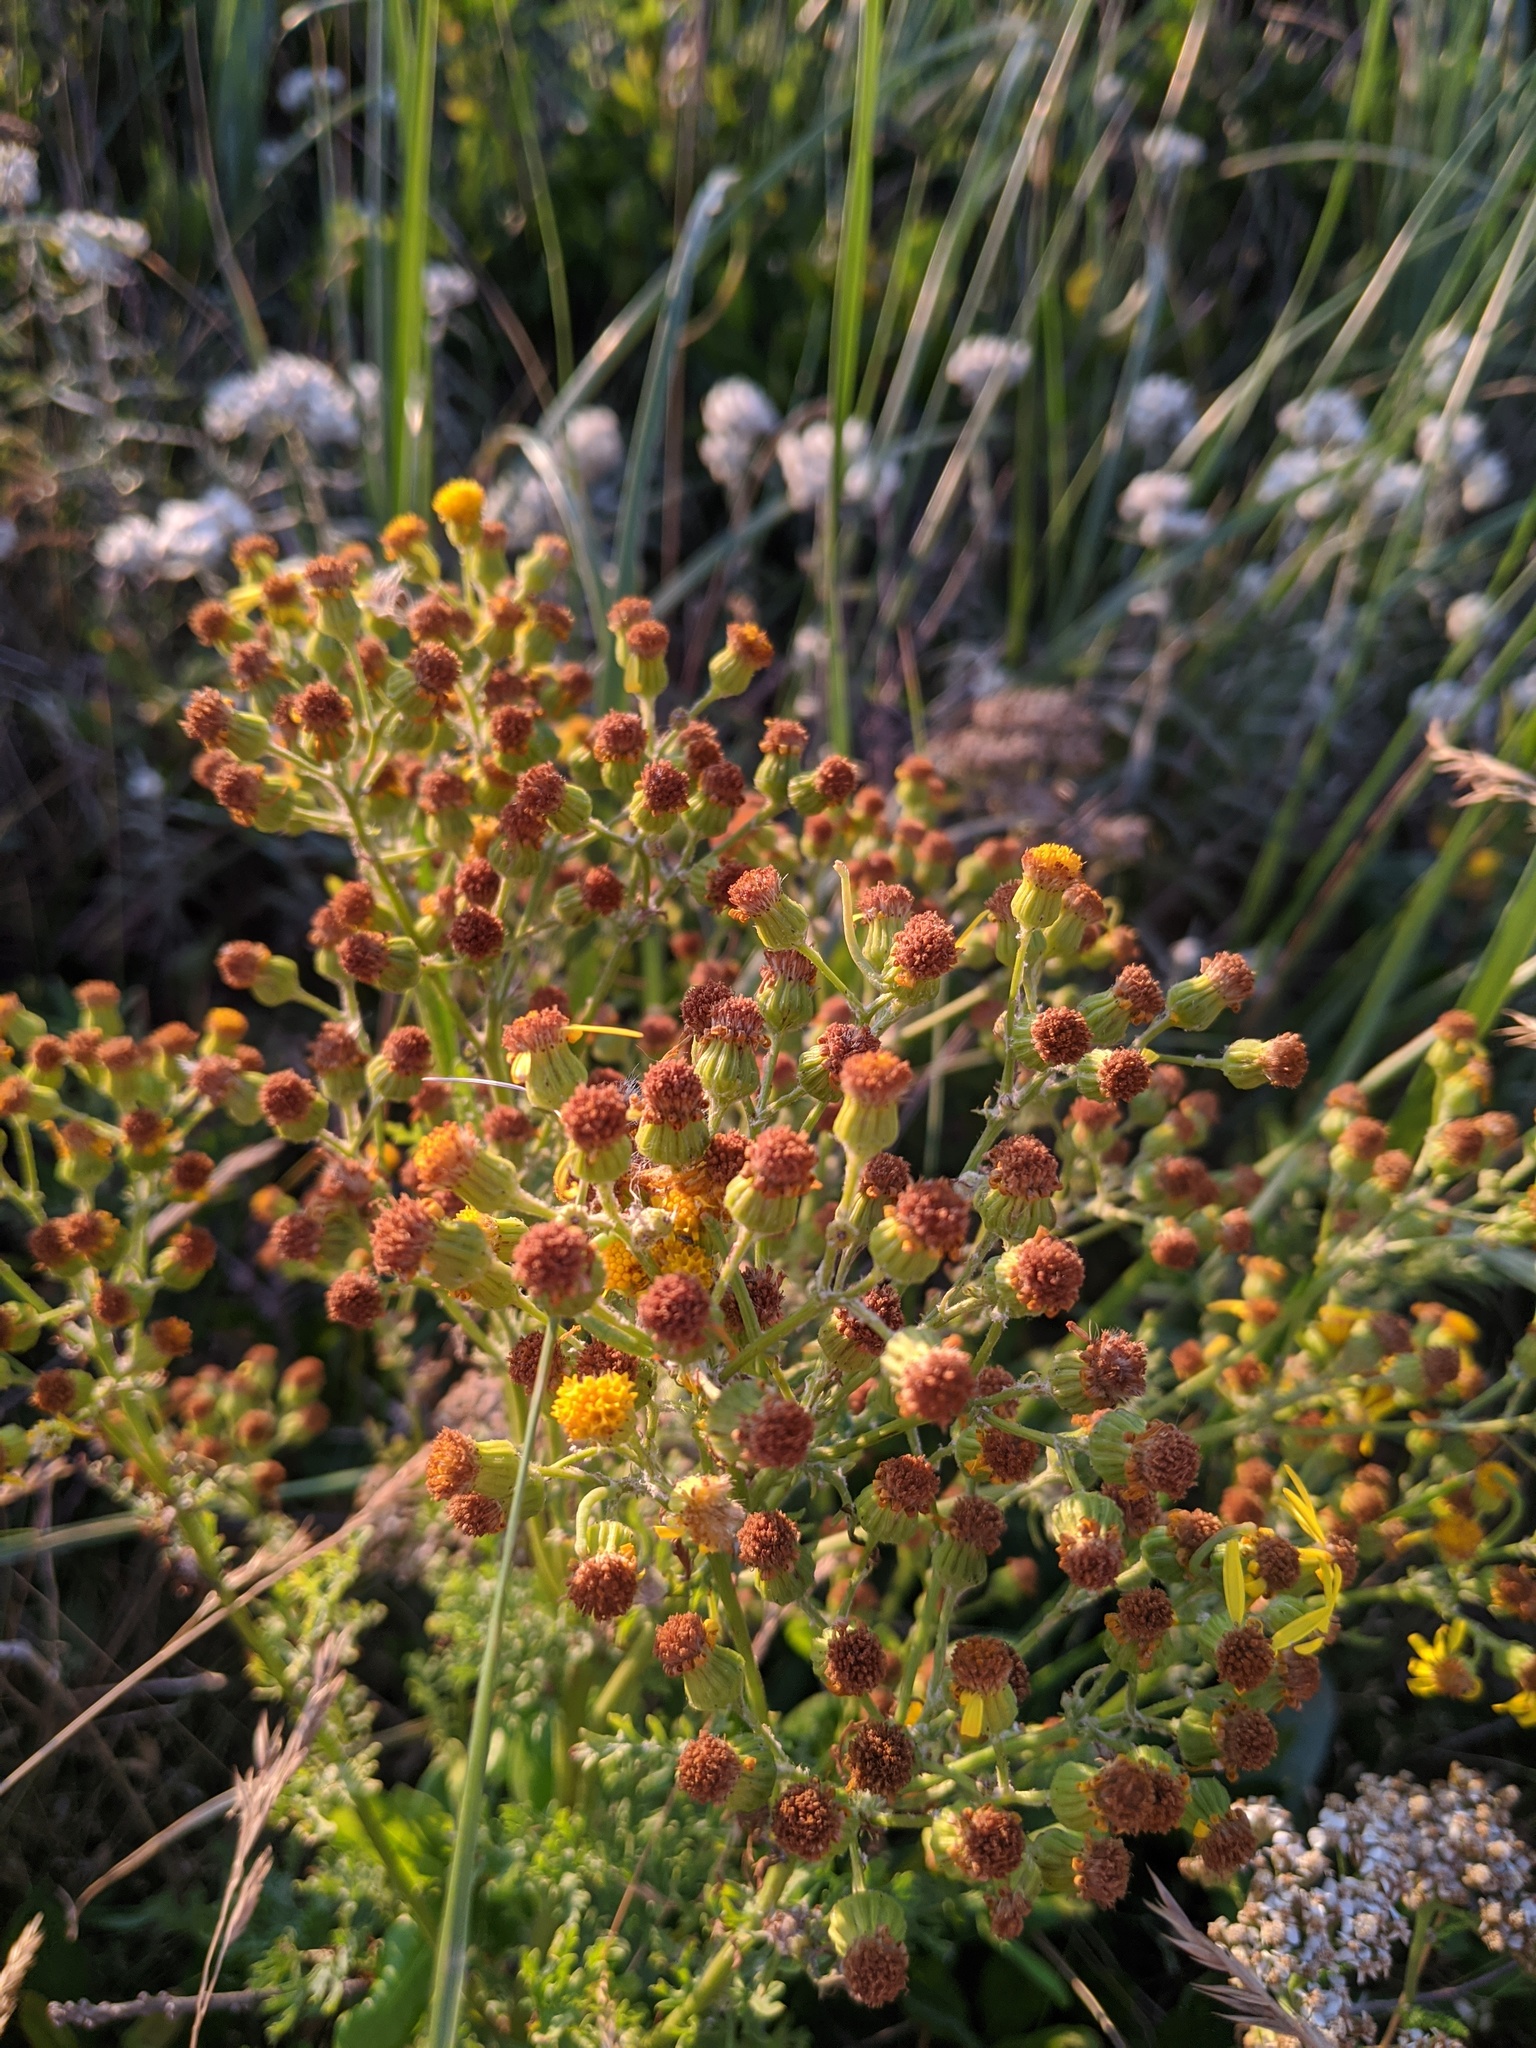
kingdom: Plantae
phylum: Tracheophyta
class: Magnoliopsida
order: Asterales
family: Asteraceae
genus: Jacobaea
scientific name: Jacobaea vulgaris
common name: Stinking willie
